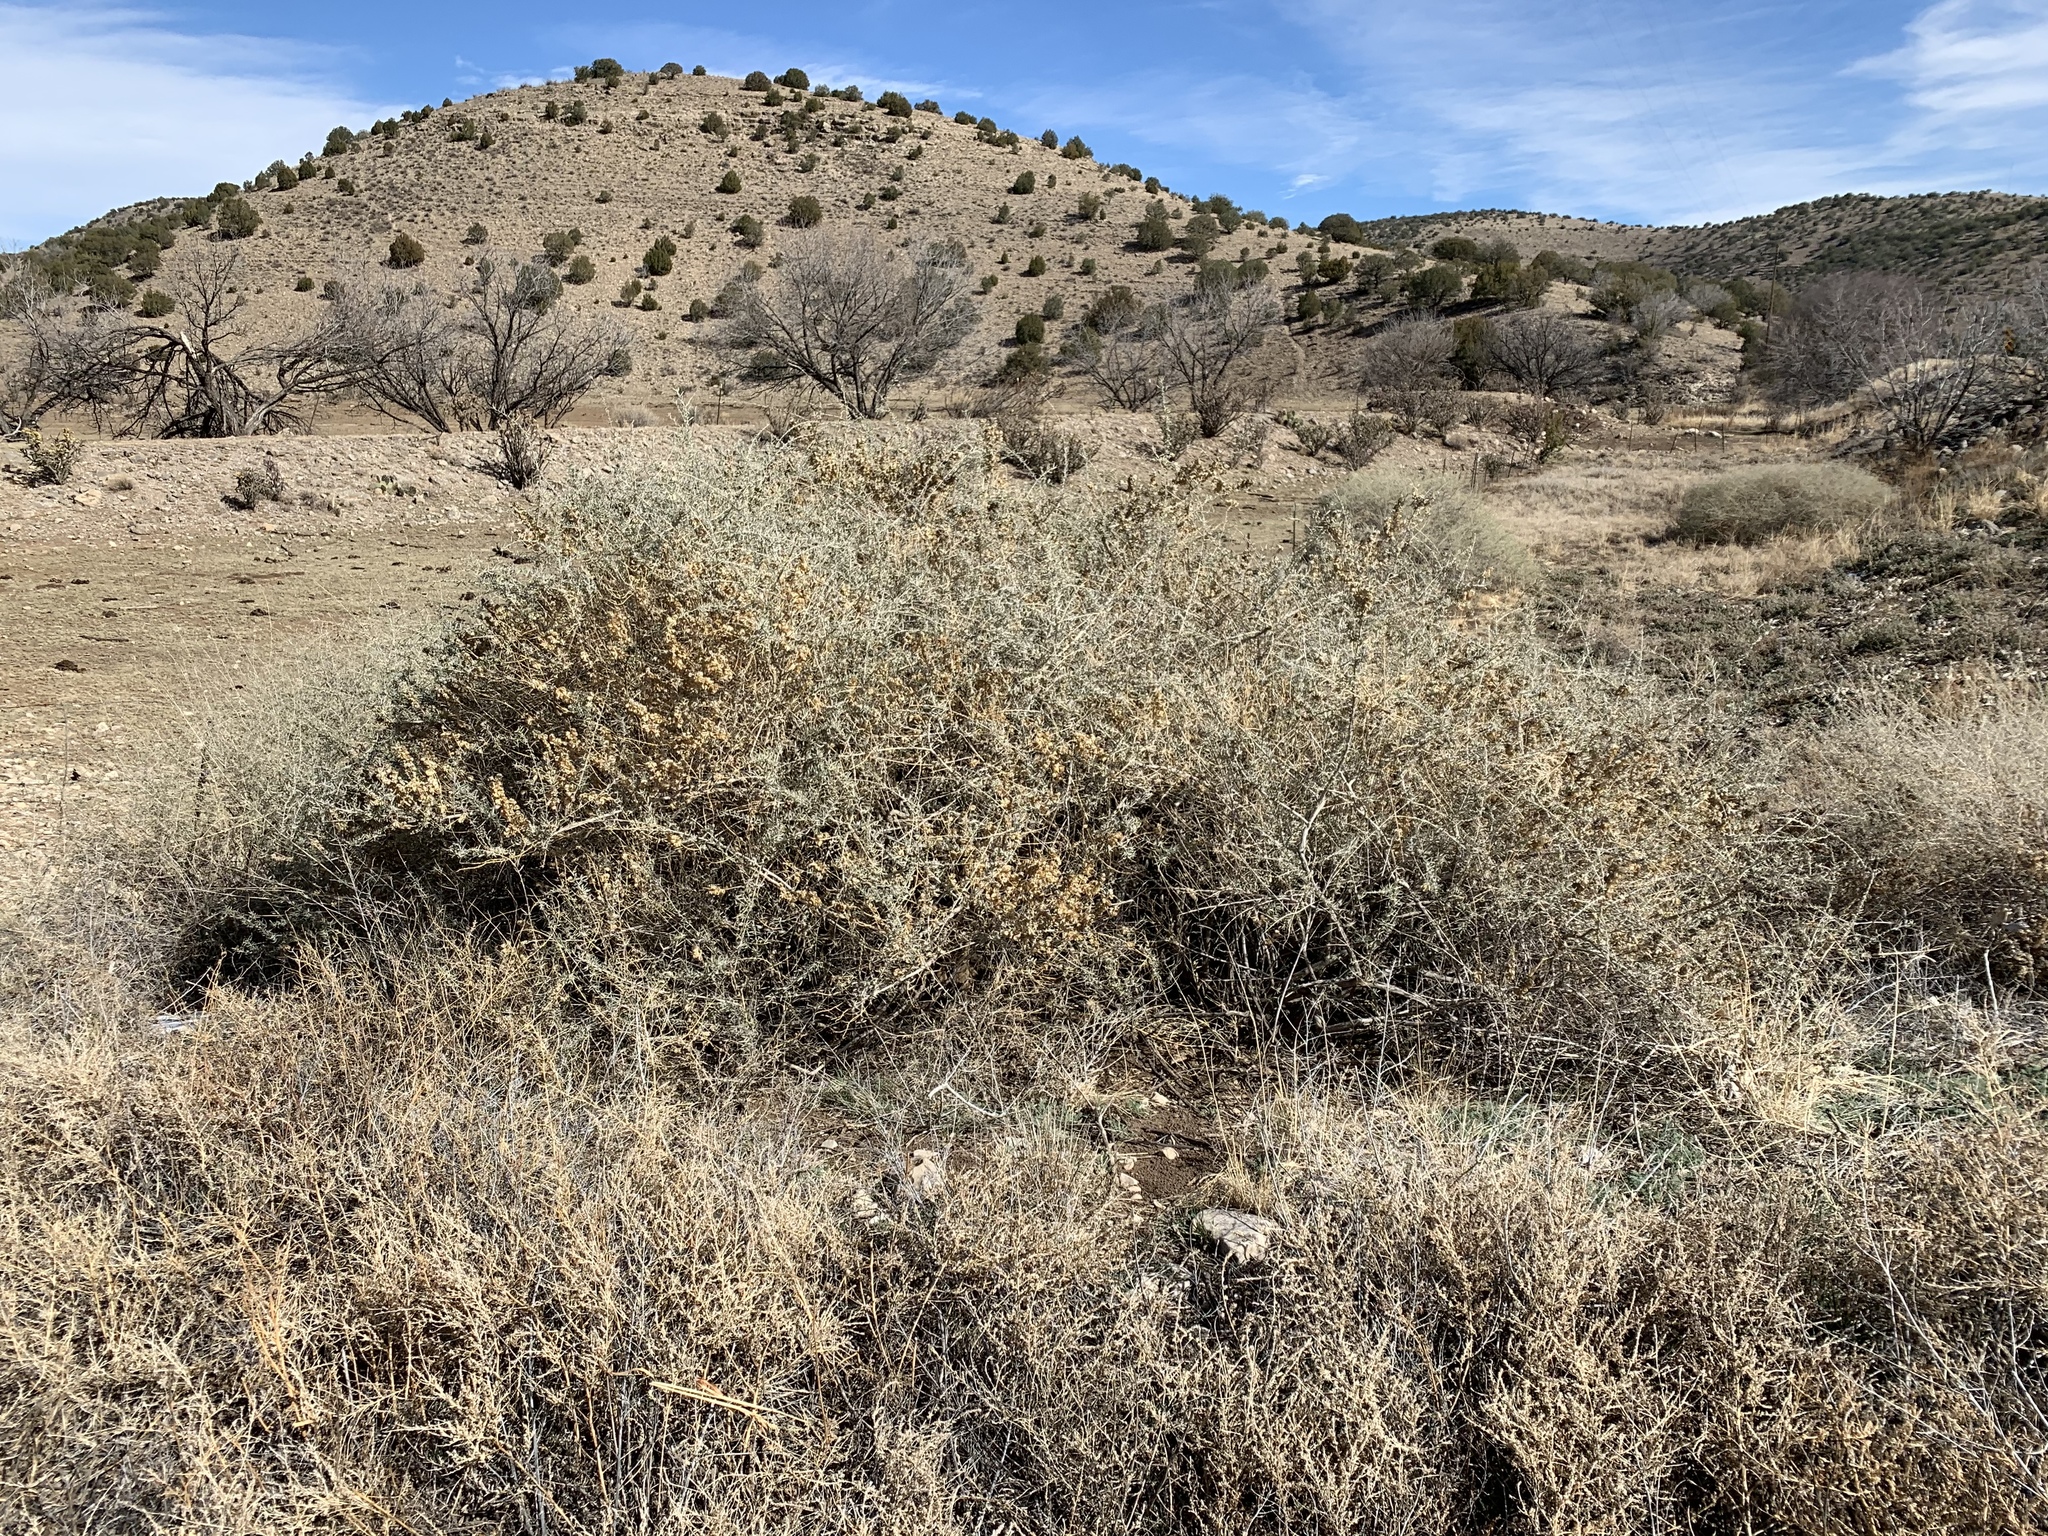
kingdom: Plantae
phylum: Tracheophyta
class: Magnoliopsida
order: Caryophyllales
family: Amaranthaceae
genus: Atriplex
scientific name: Atriplex canescens
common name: Four-wing saltbush
